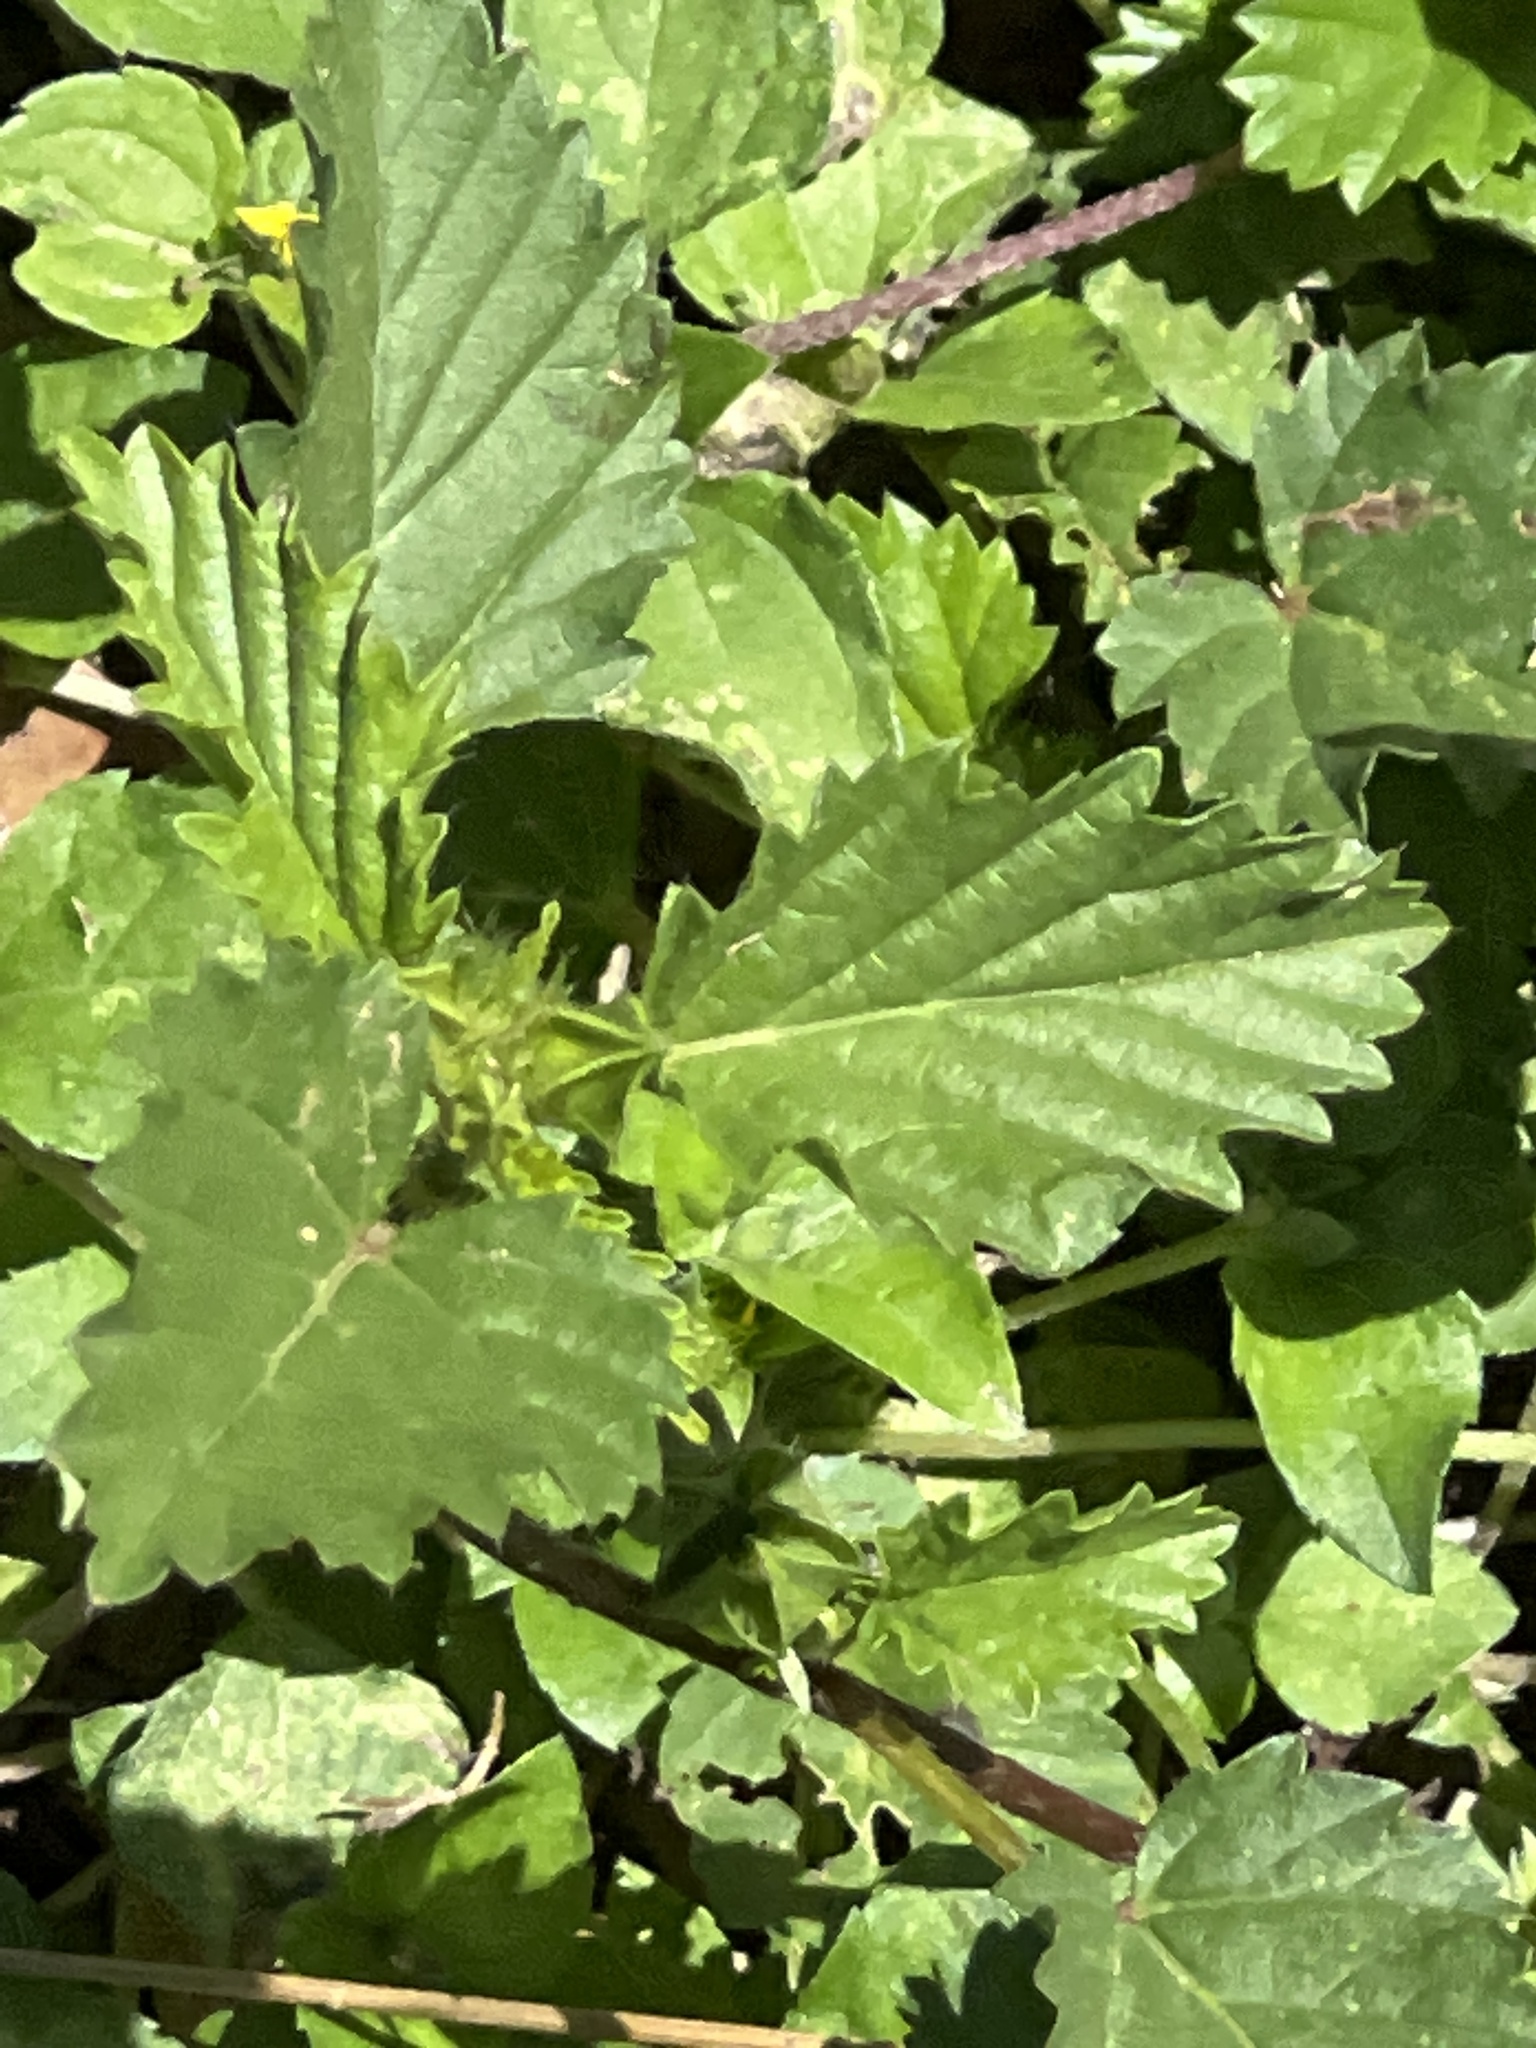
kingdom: Plantae
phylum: Tracheophyta
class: Magnoliopsida
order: Malvales
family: Malvaceae
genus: Malvastrum
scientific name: Malvastrum coromandelianum
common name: Threelobe false mallow
